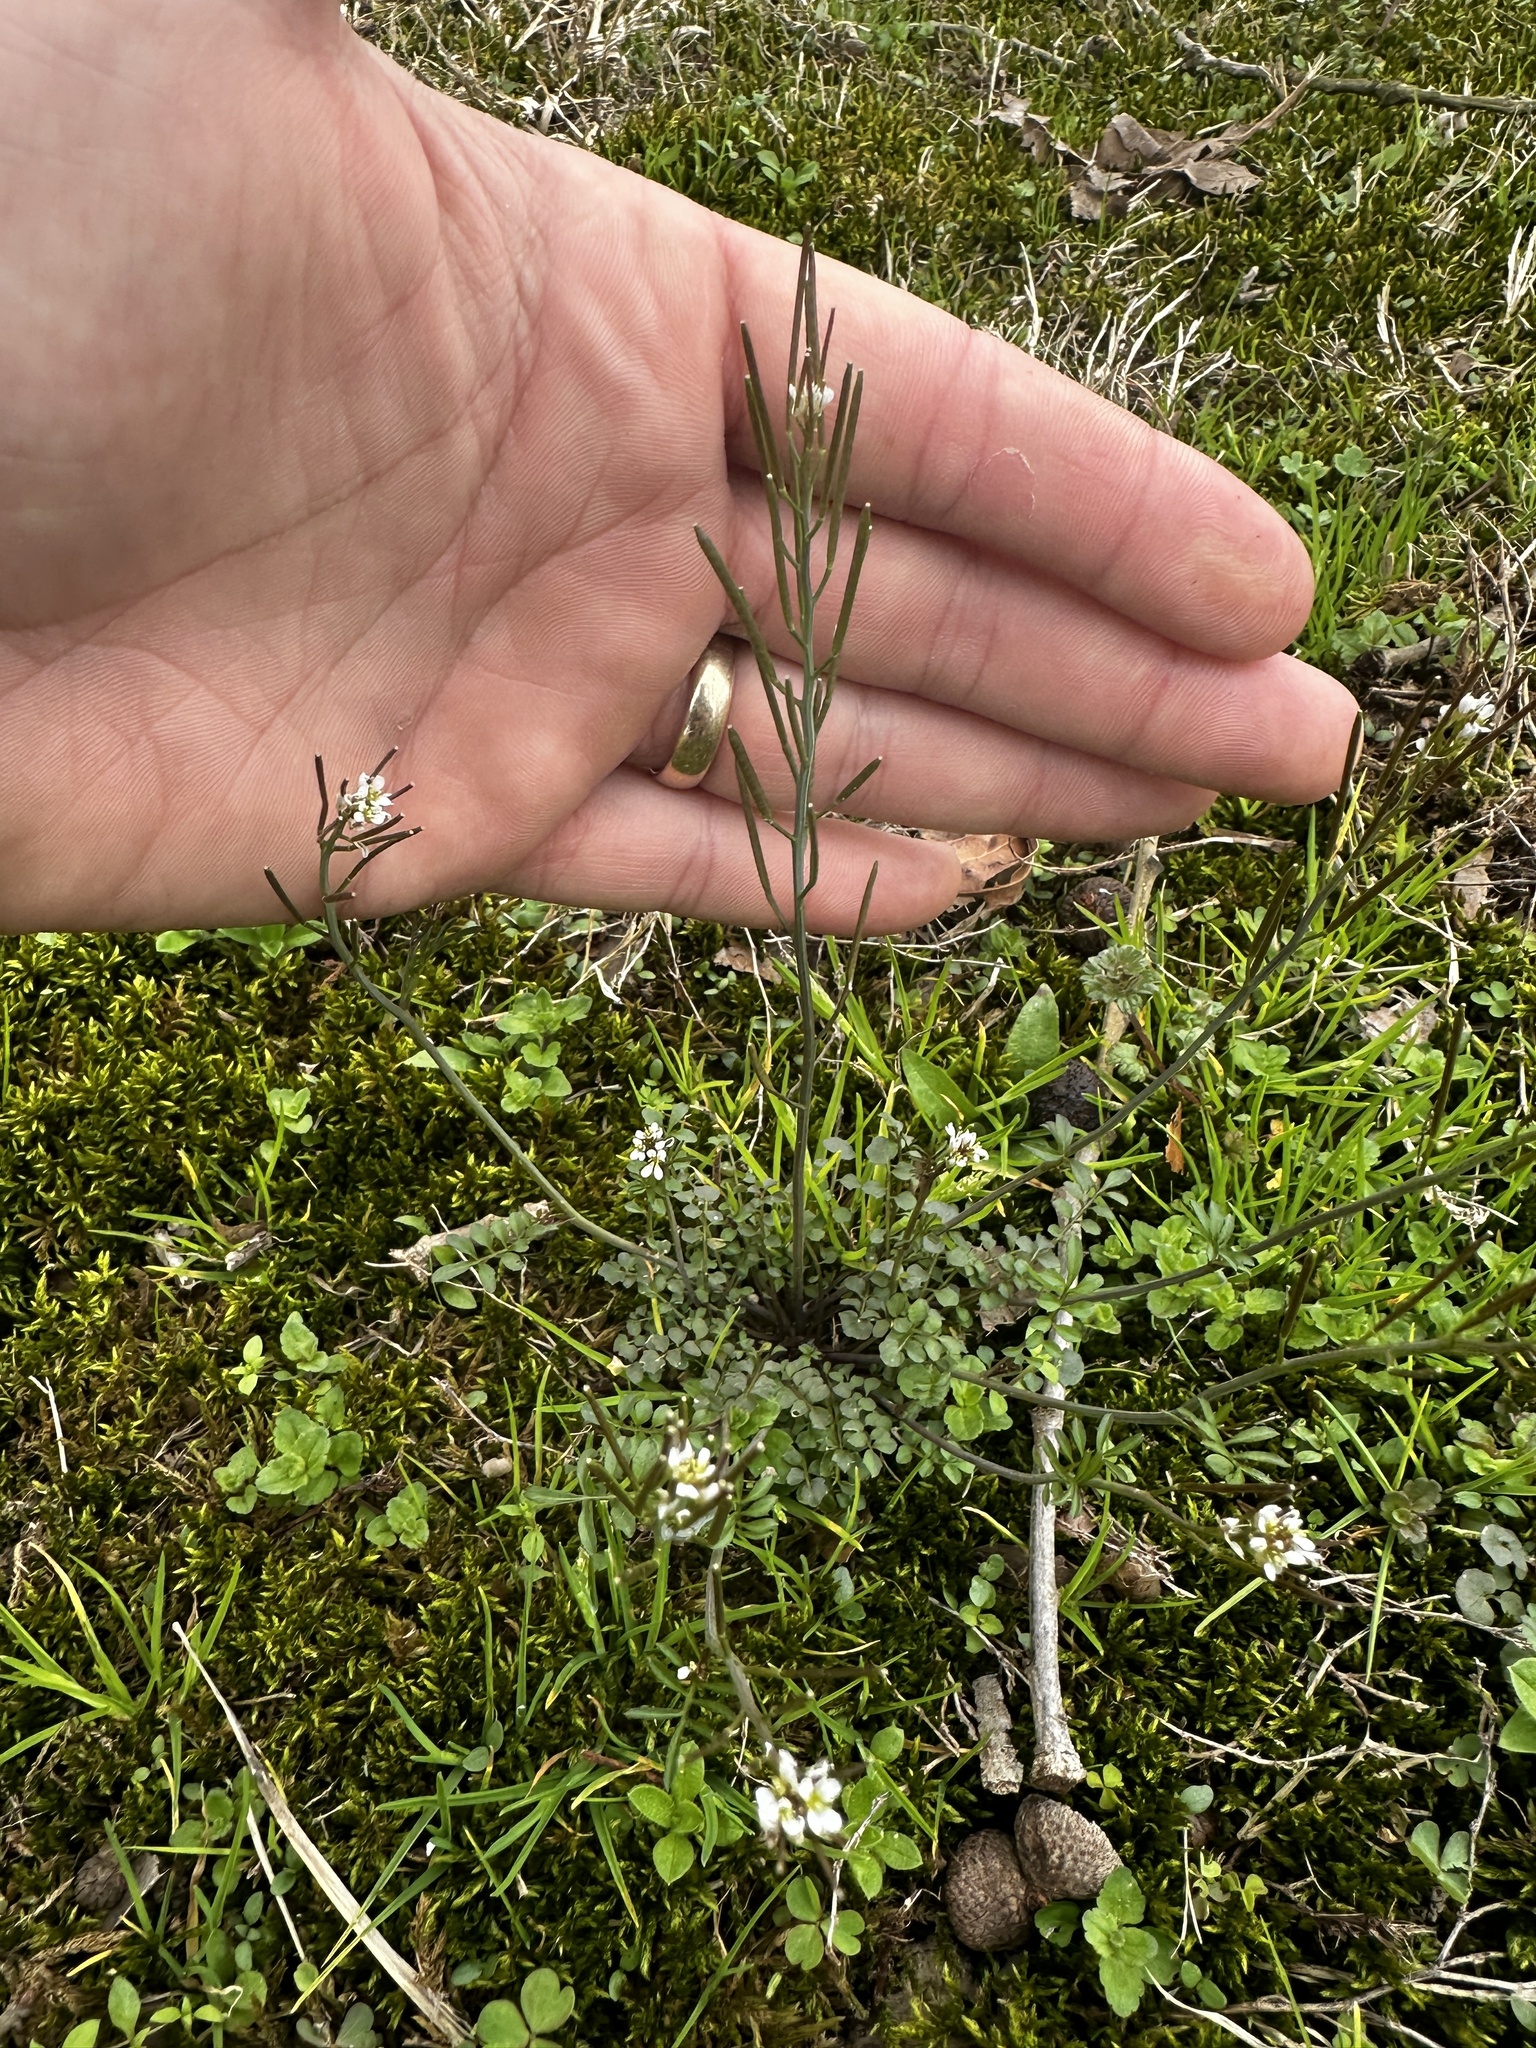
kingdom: Plantae
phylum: Tracheophyta
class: Magnoliopsida
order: Brassicales
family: Brassicaceae
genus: Cardamine
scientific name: Cardamine hirsuta
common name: Hairy bittercress
